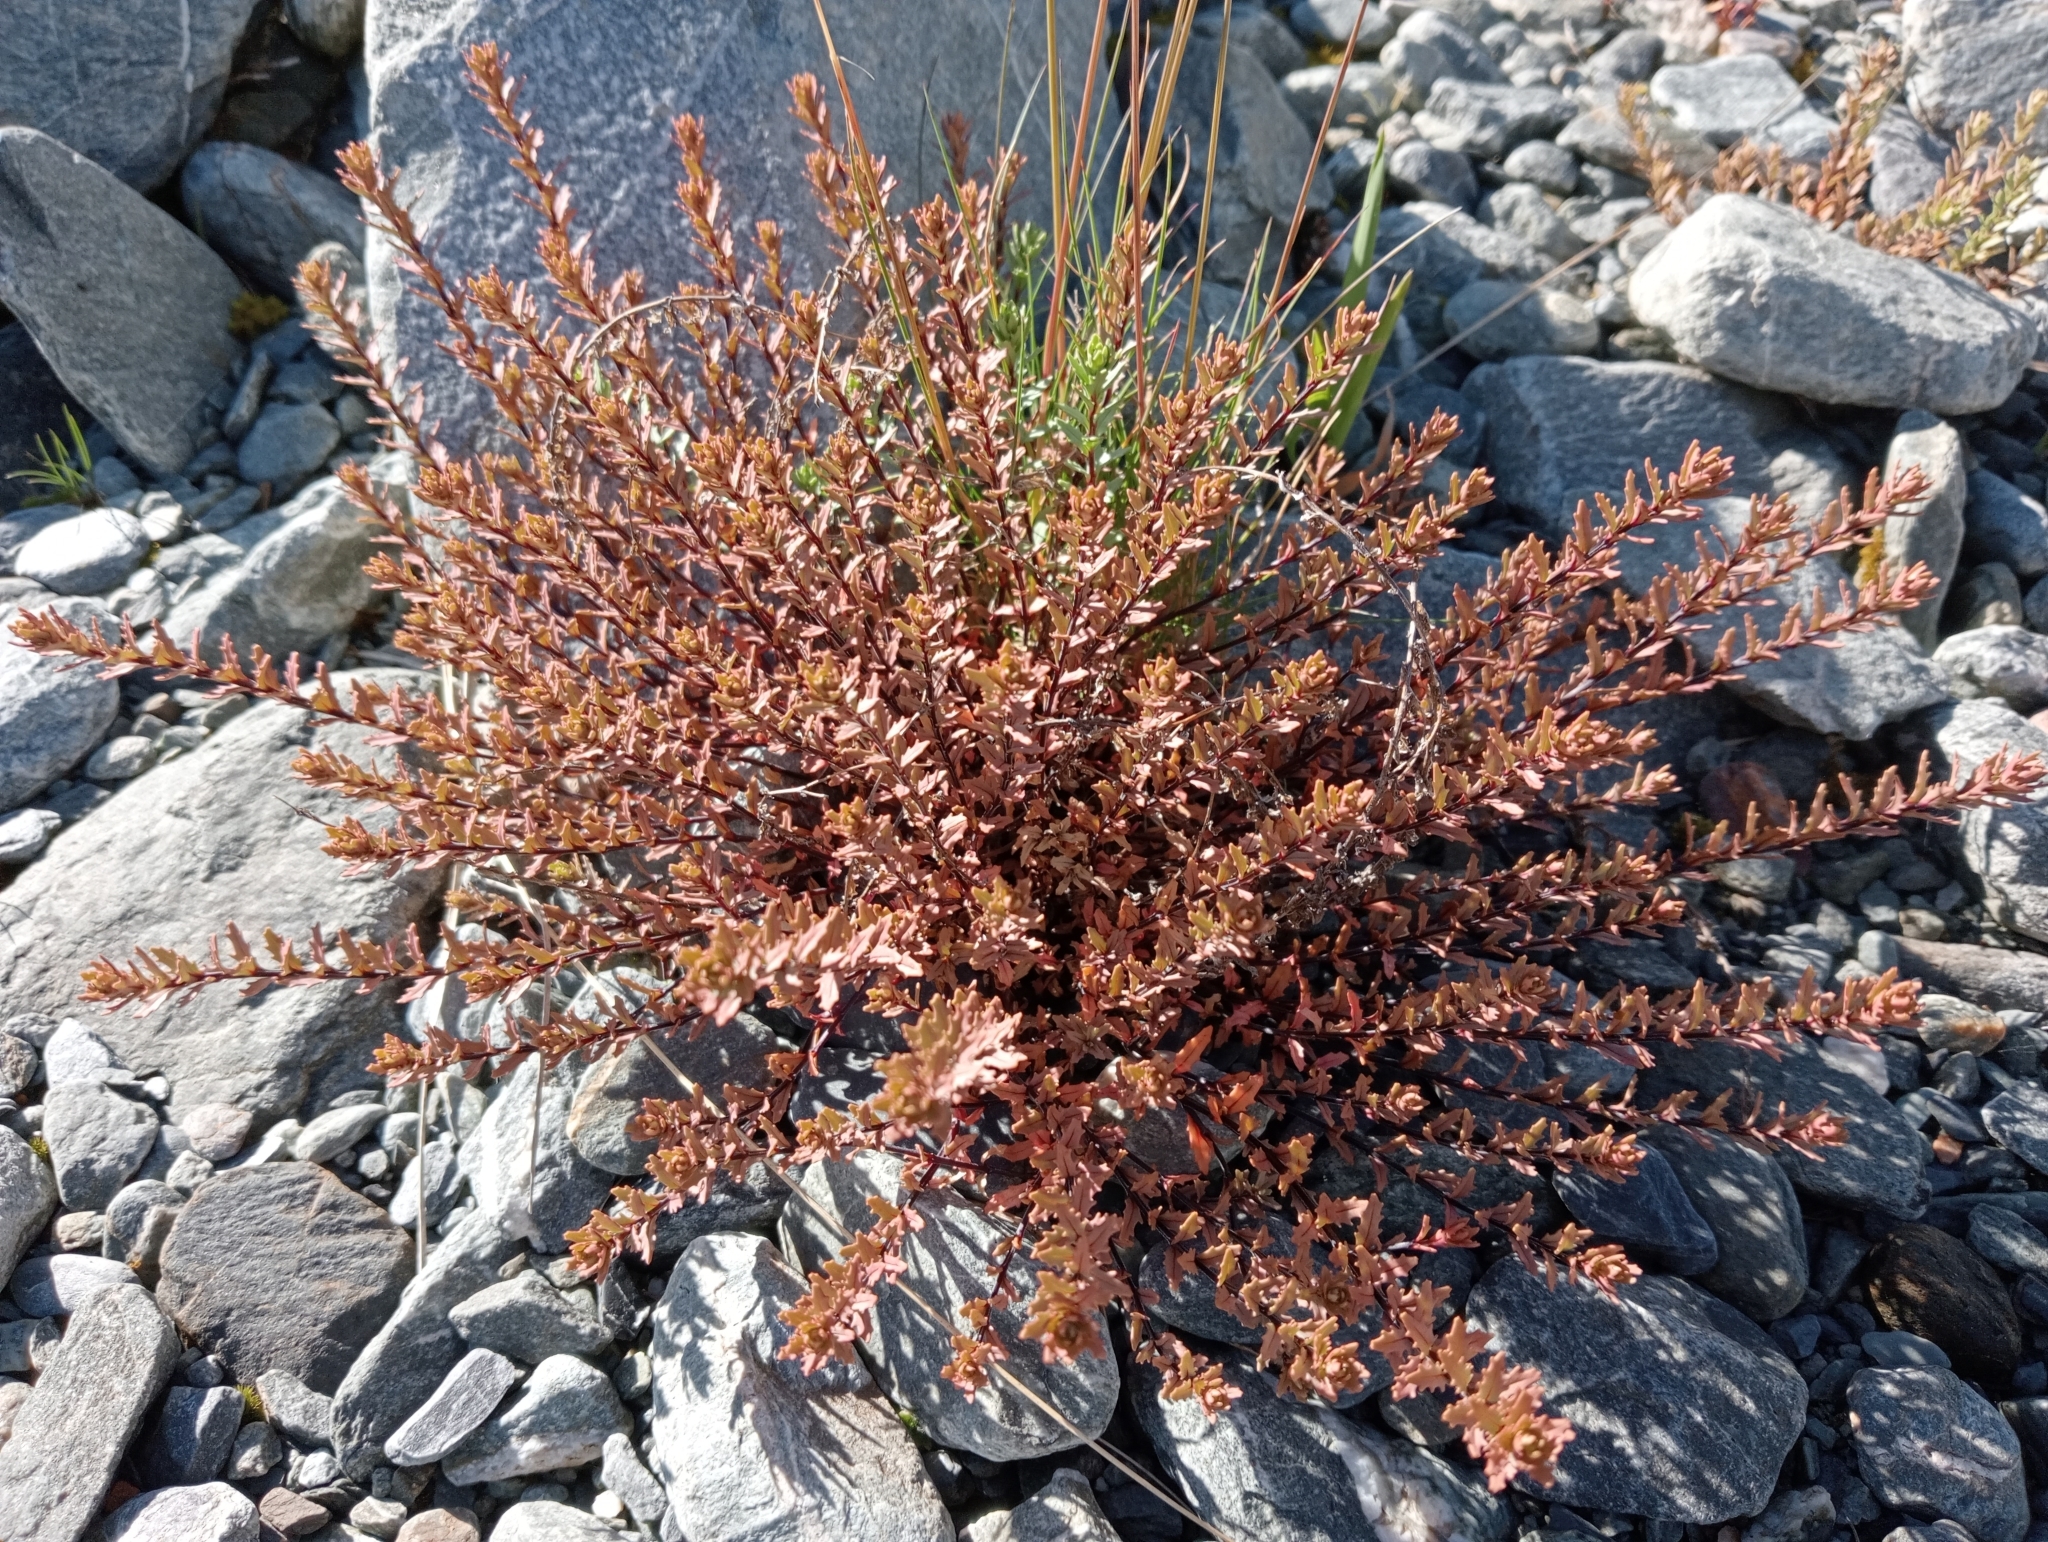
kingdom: Plantae
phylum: Tracheophyta
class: Magnoliopsida
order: Myrtales
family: Onagraceae
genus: Epilobium
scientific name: Epilobium melanocaulon
